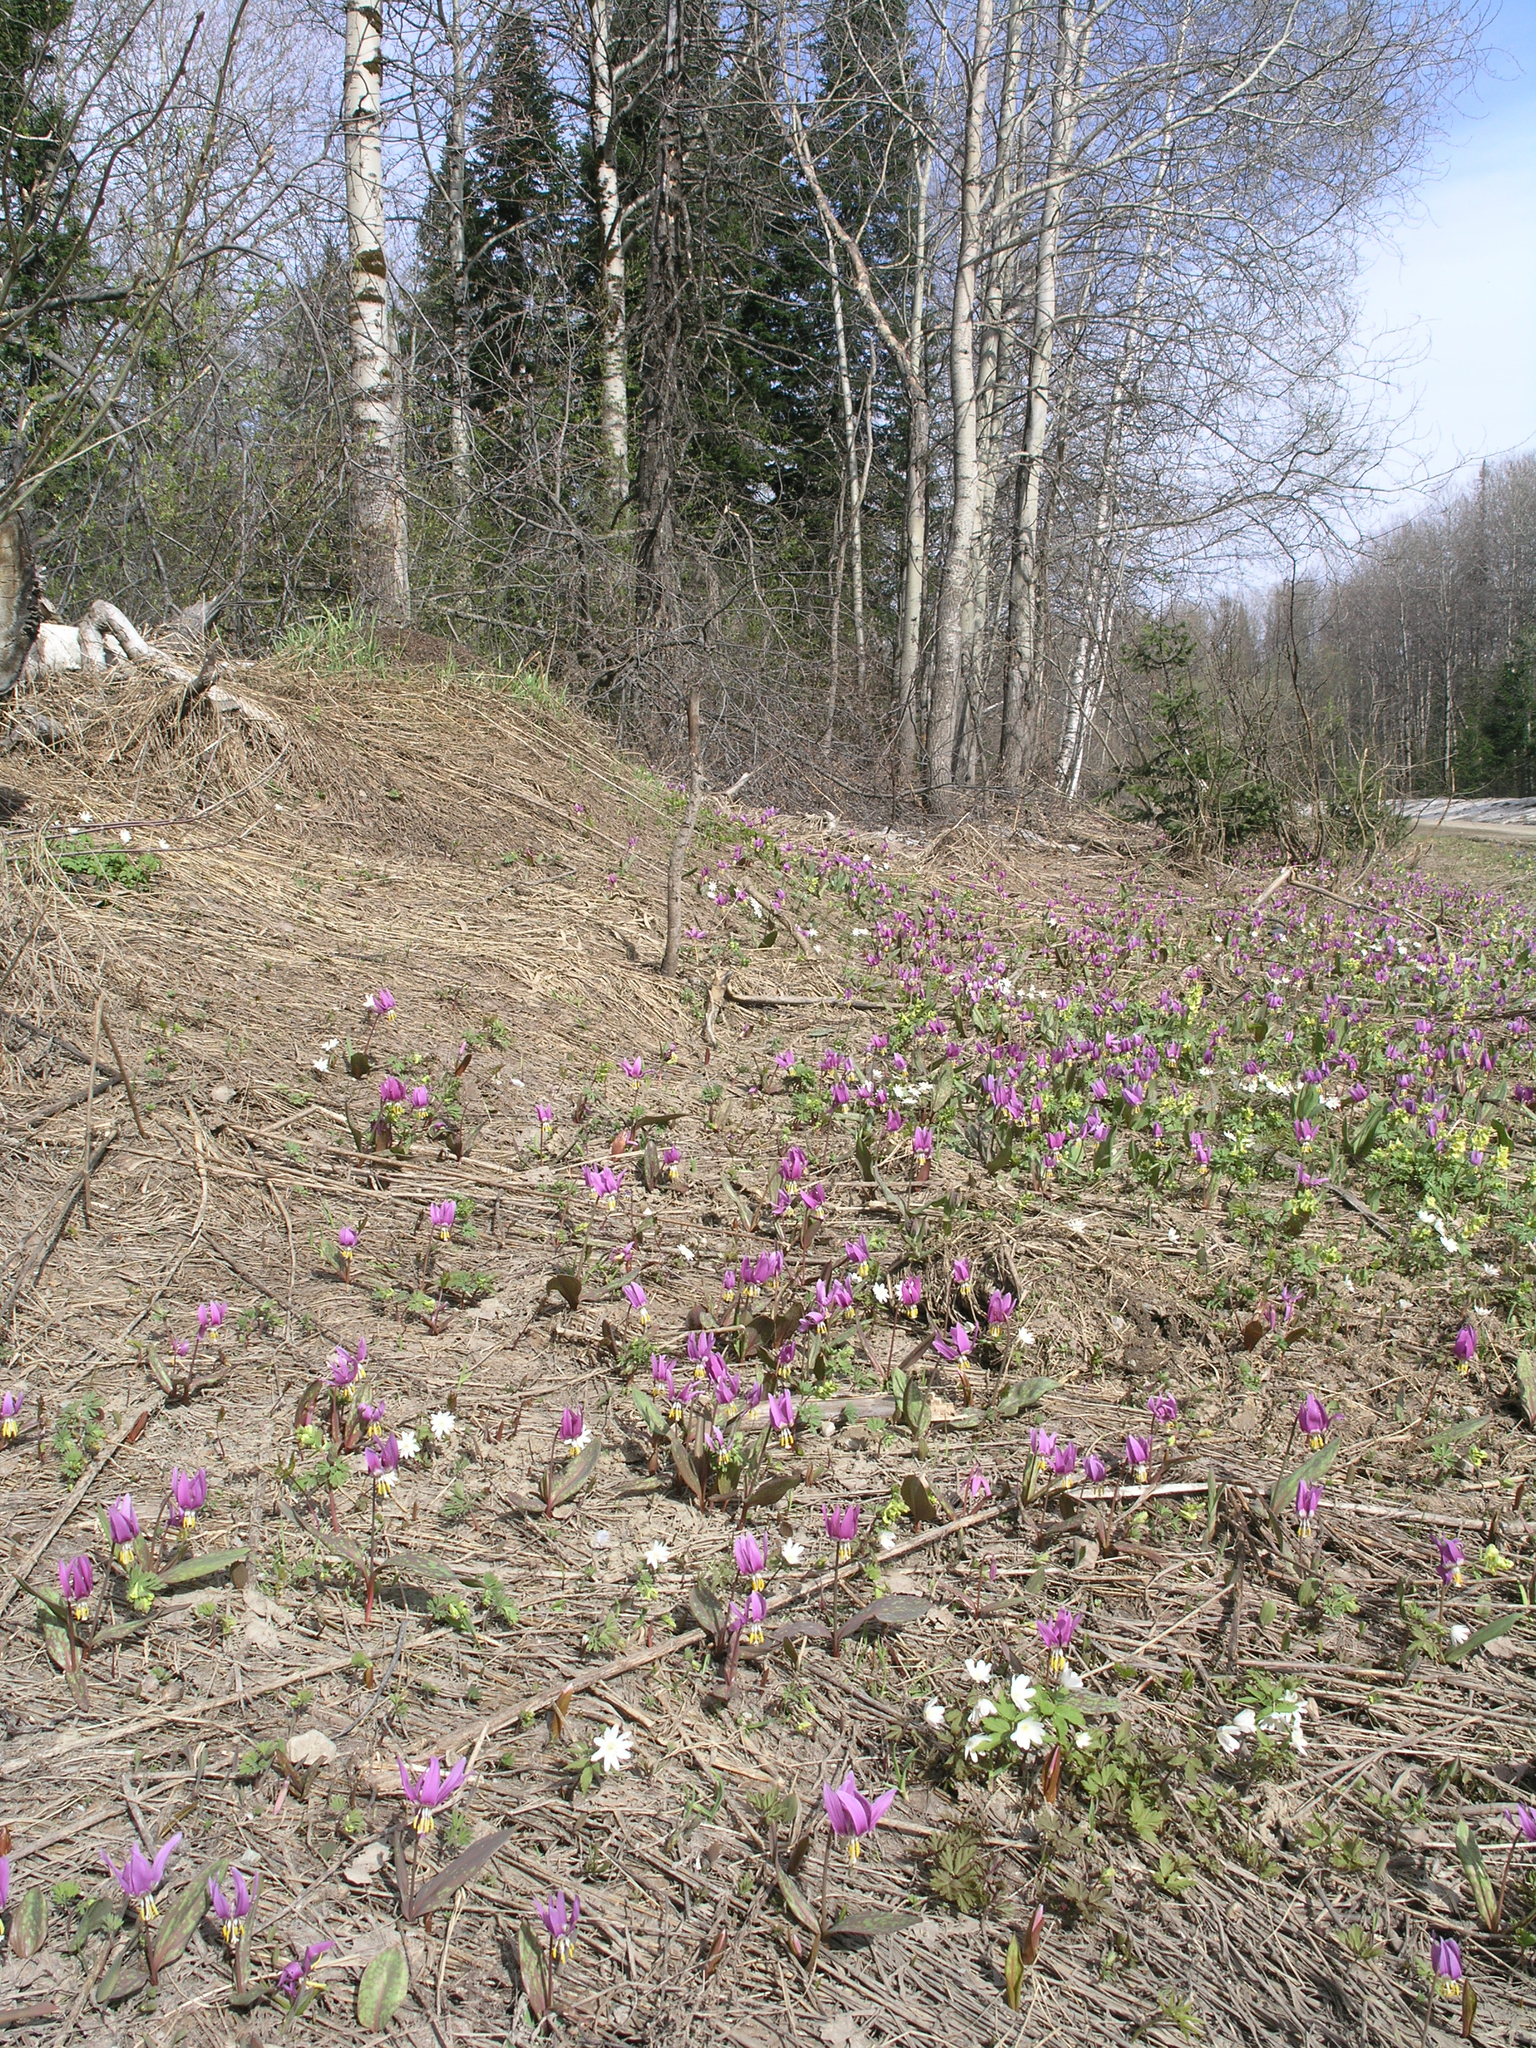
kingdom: Plantae
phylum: Tracheophyta
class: Liliopsida
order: Liliales
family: Liliaceae
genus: Erythronium
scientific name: Erythronium sibiricum
